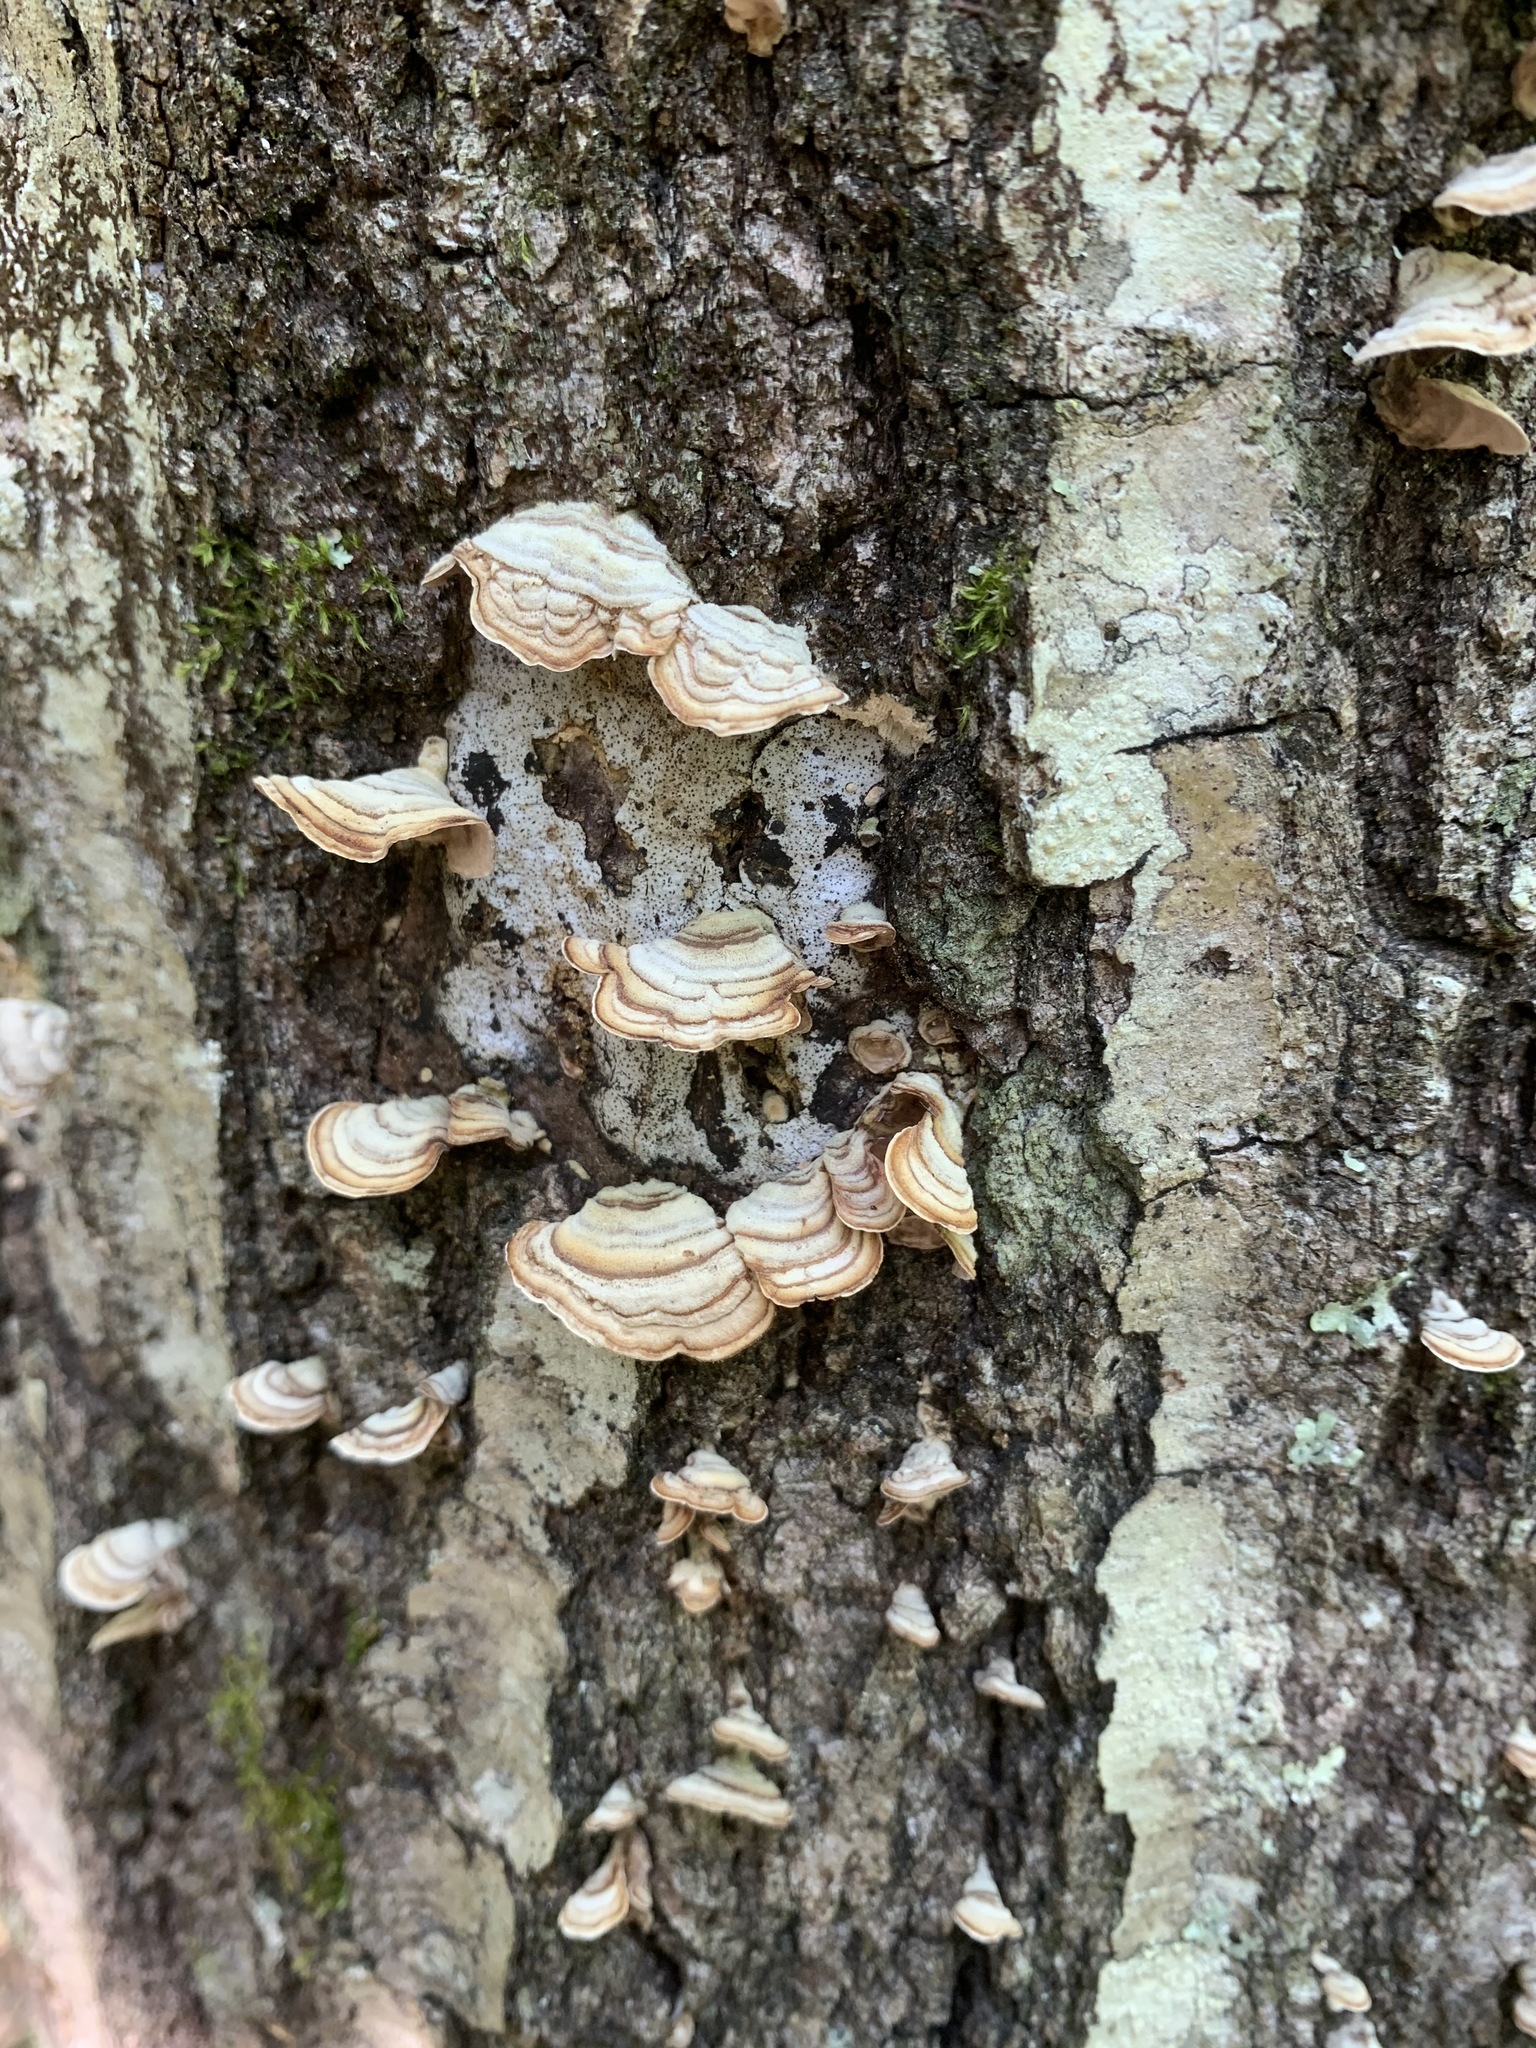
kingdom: Fungi
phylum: Basidiomycota
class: Agaricomycetes
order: Russulales
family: Stereaceae
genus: Stereum
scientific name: Stereum
